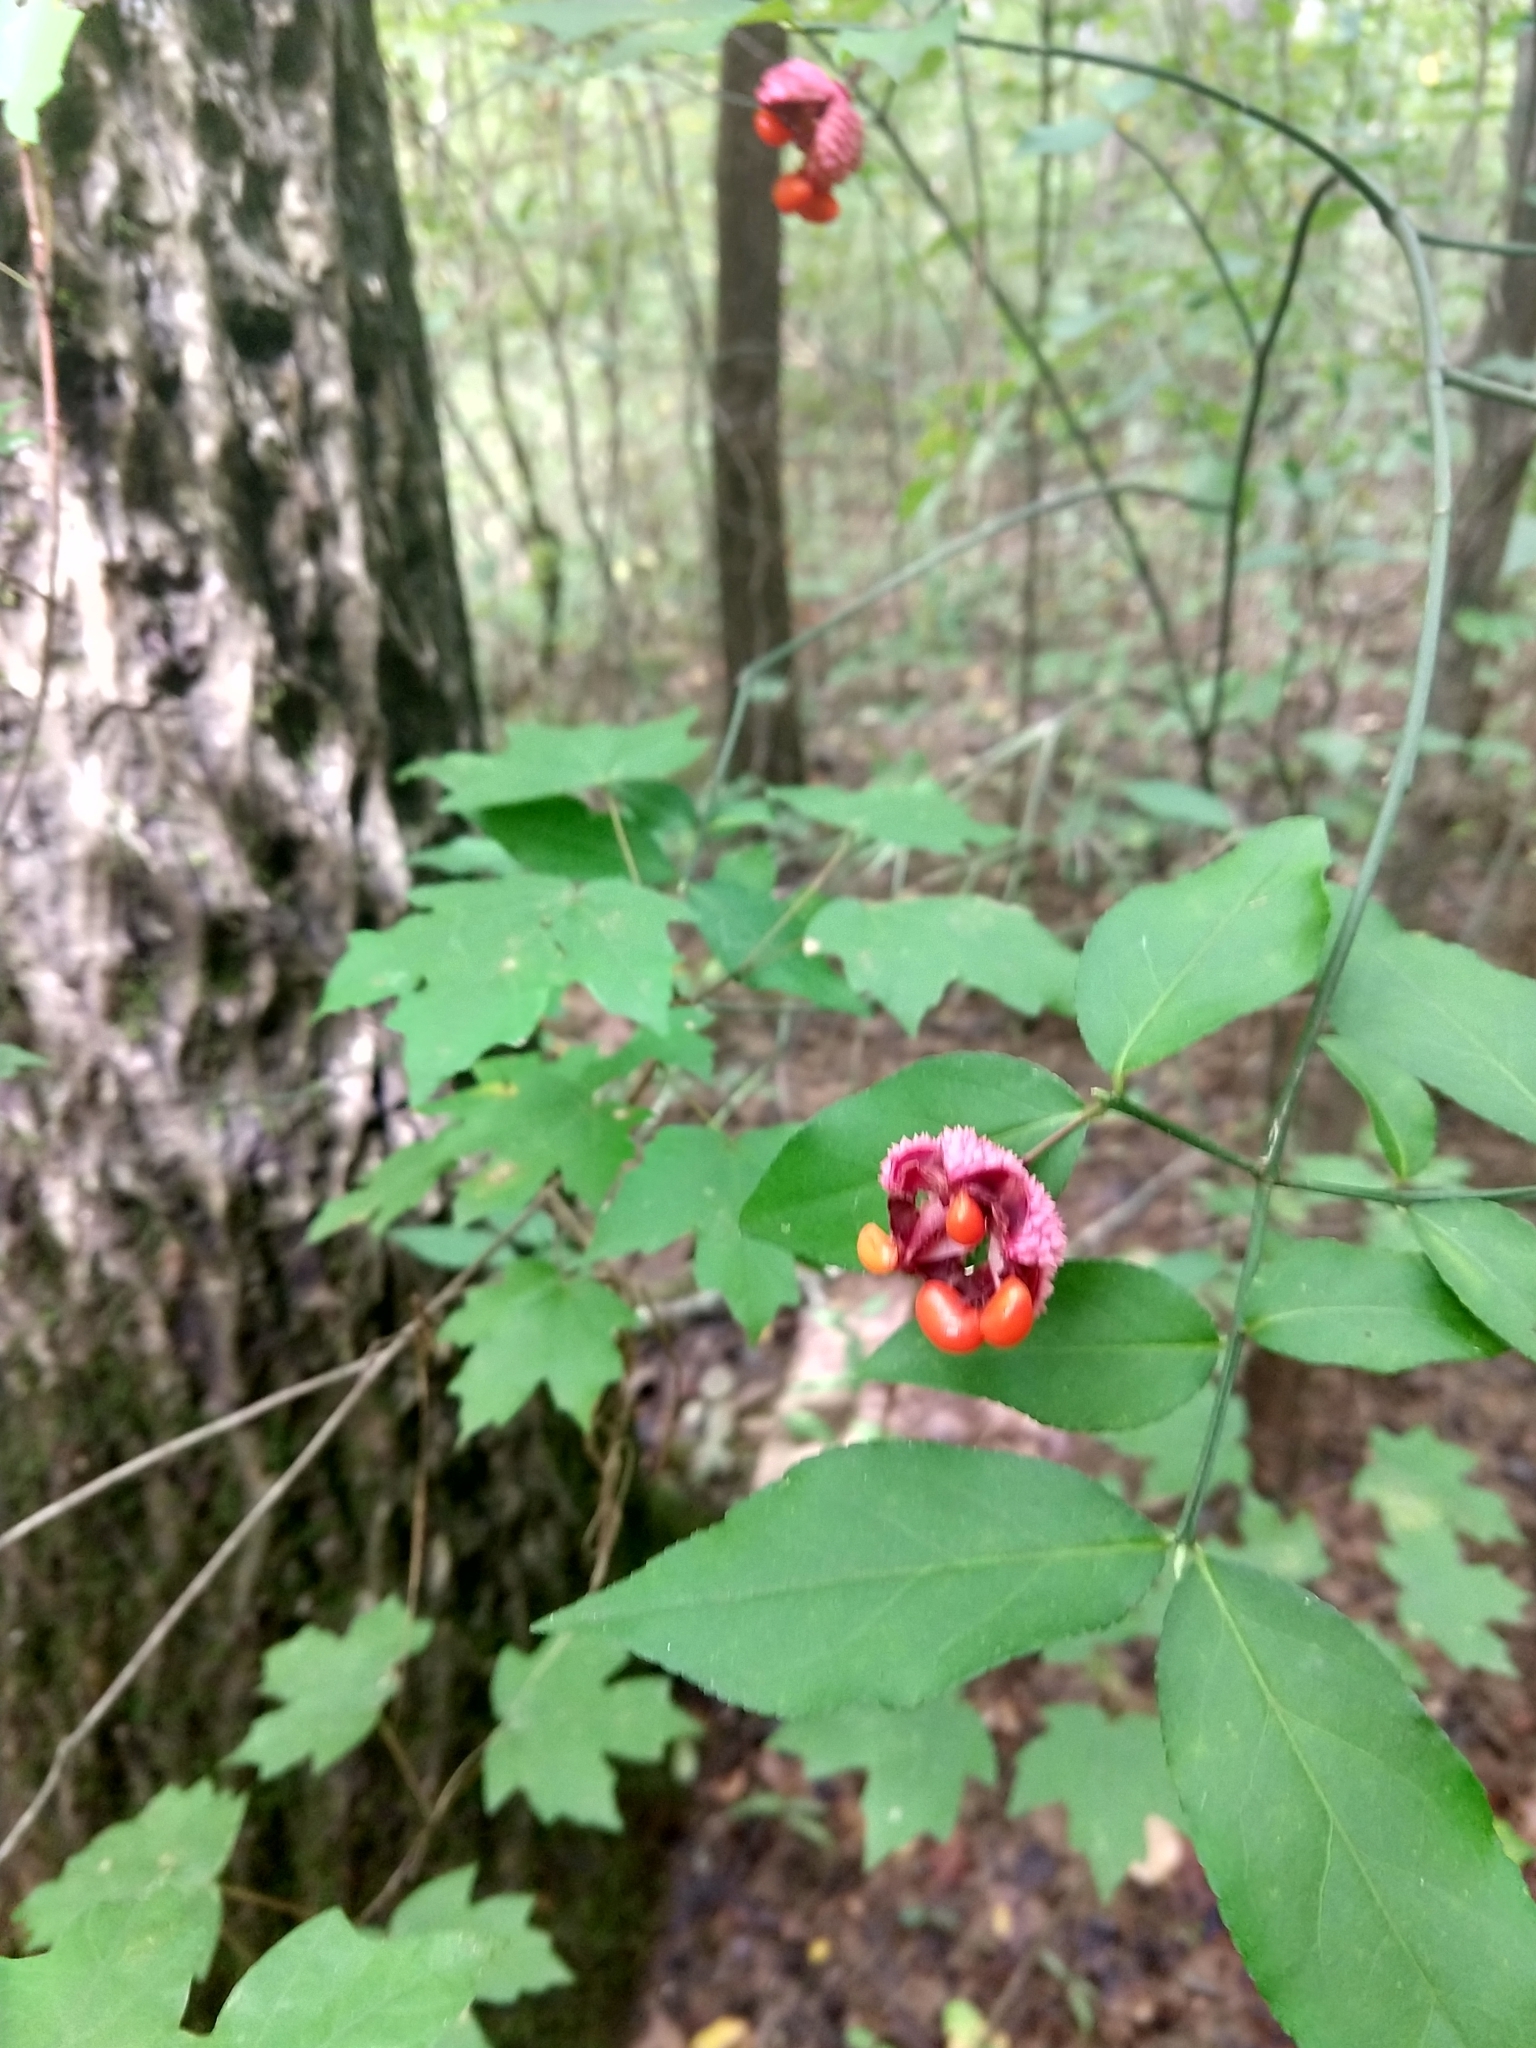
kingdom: Plantae
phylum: Tracheophyta
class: Magnoliopsida
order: Celastrales
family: Celastraceae
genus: Euonymus
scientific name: Euonymus americanus
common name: Bursting-heart
